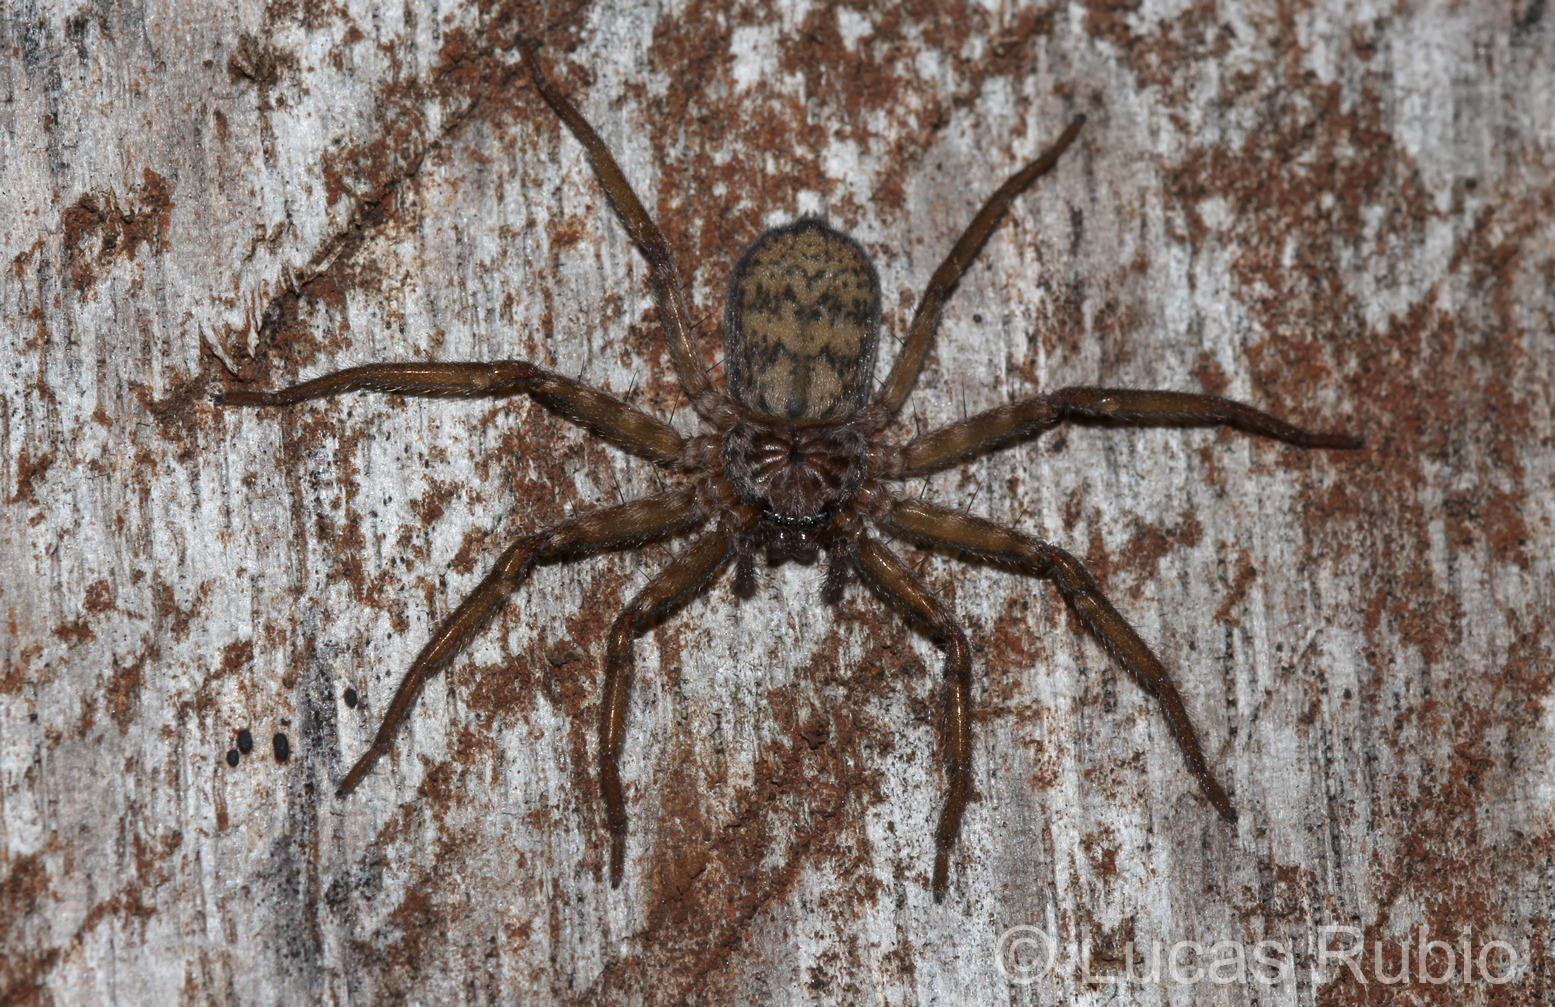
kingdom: Animalia
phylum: Arthropoda
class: Arachnida
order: Araneae
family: Selenopidae
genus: Selenops
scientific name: Selenops
